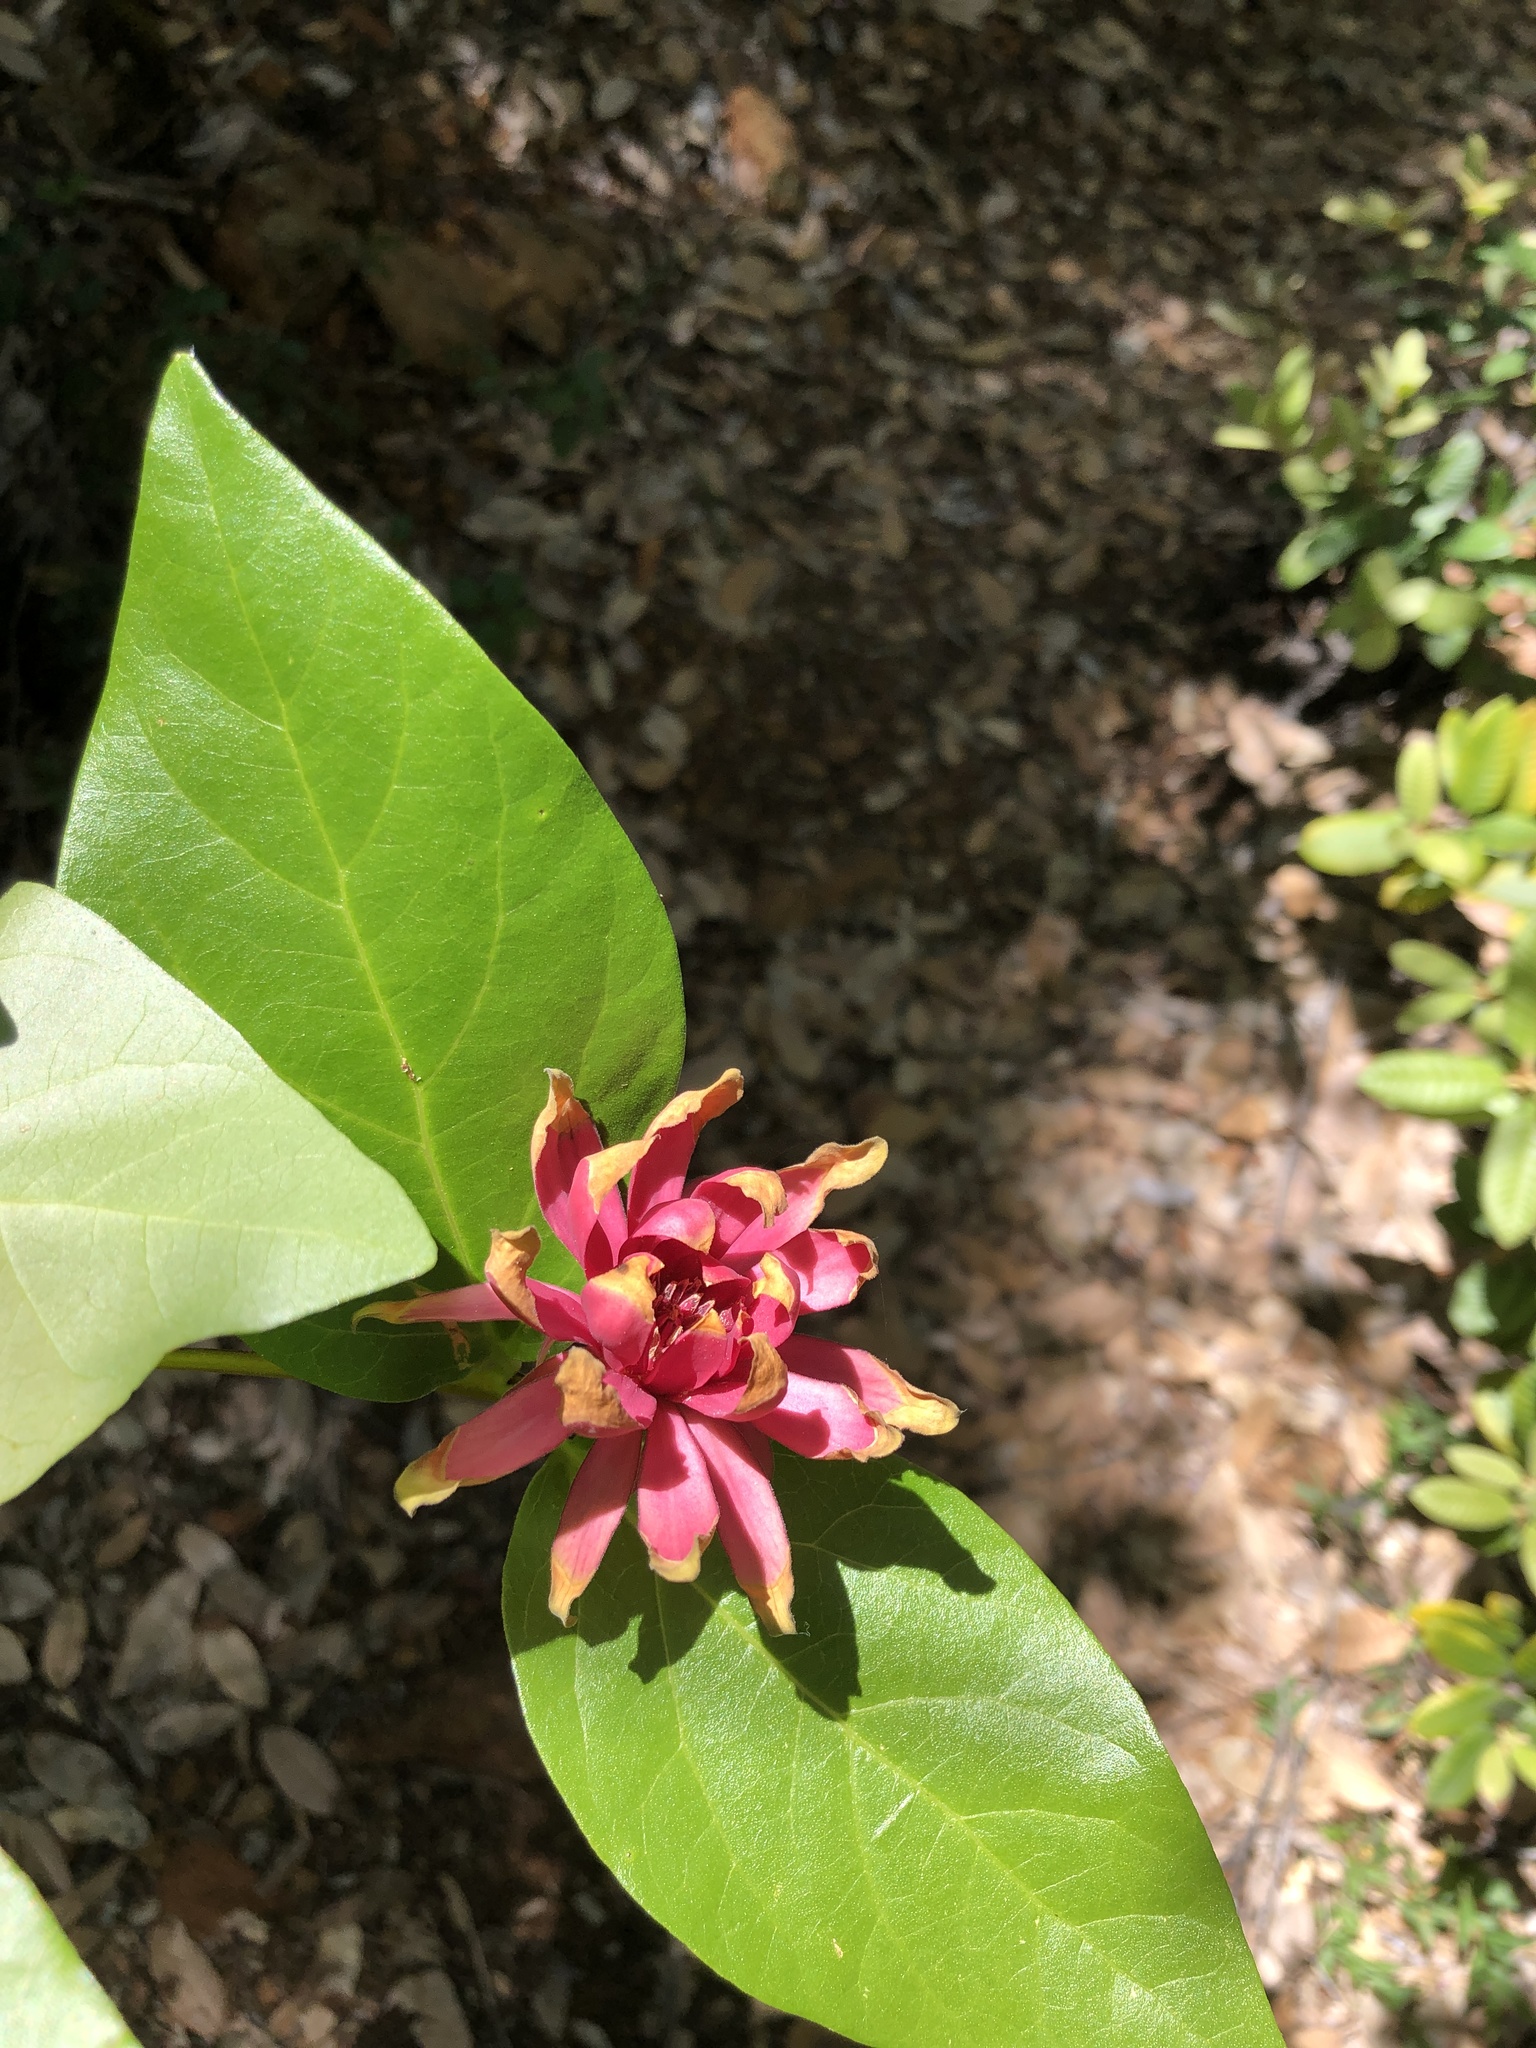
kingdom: Plantae
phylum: Tracheophyta
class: Magnoliopsida
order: Laurales
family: Calycanthaceae
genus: Calycanthus
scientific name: Calycanthus occidentalis
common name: California spicebush
